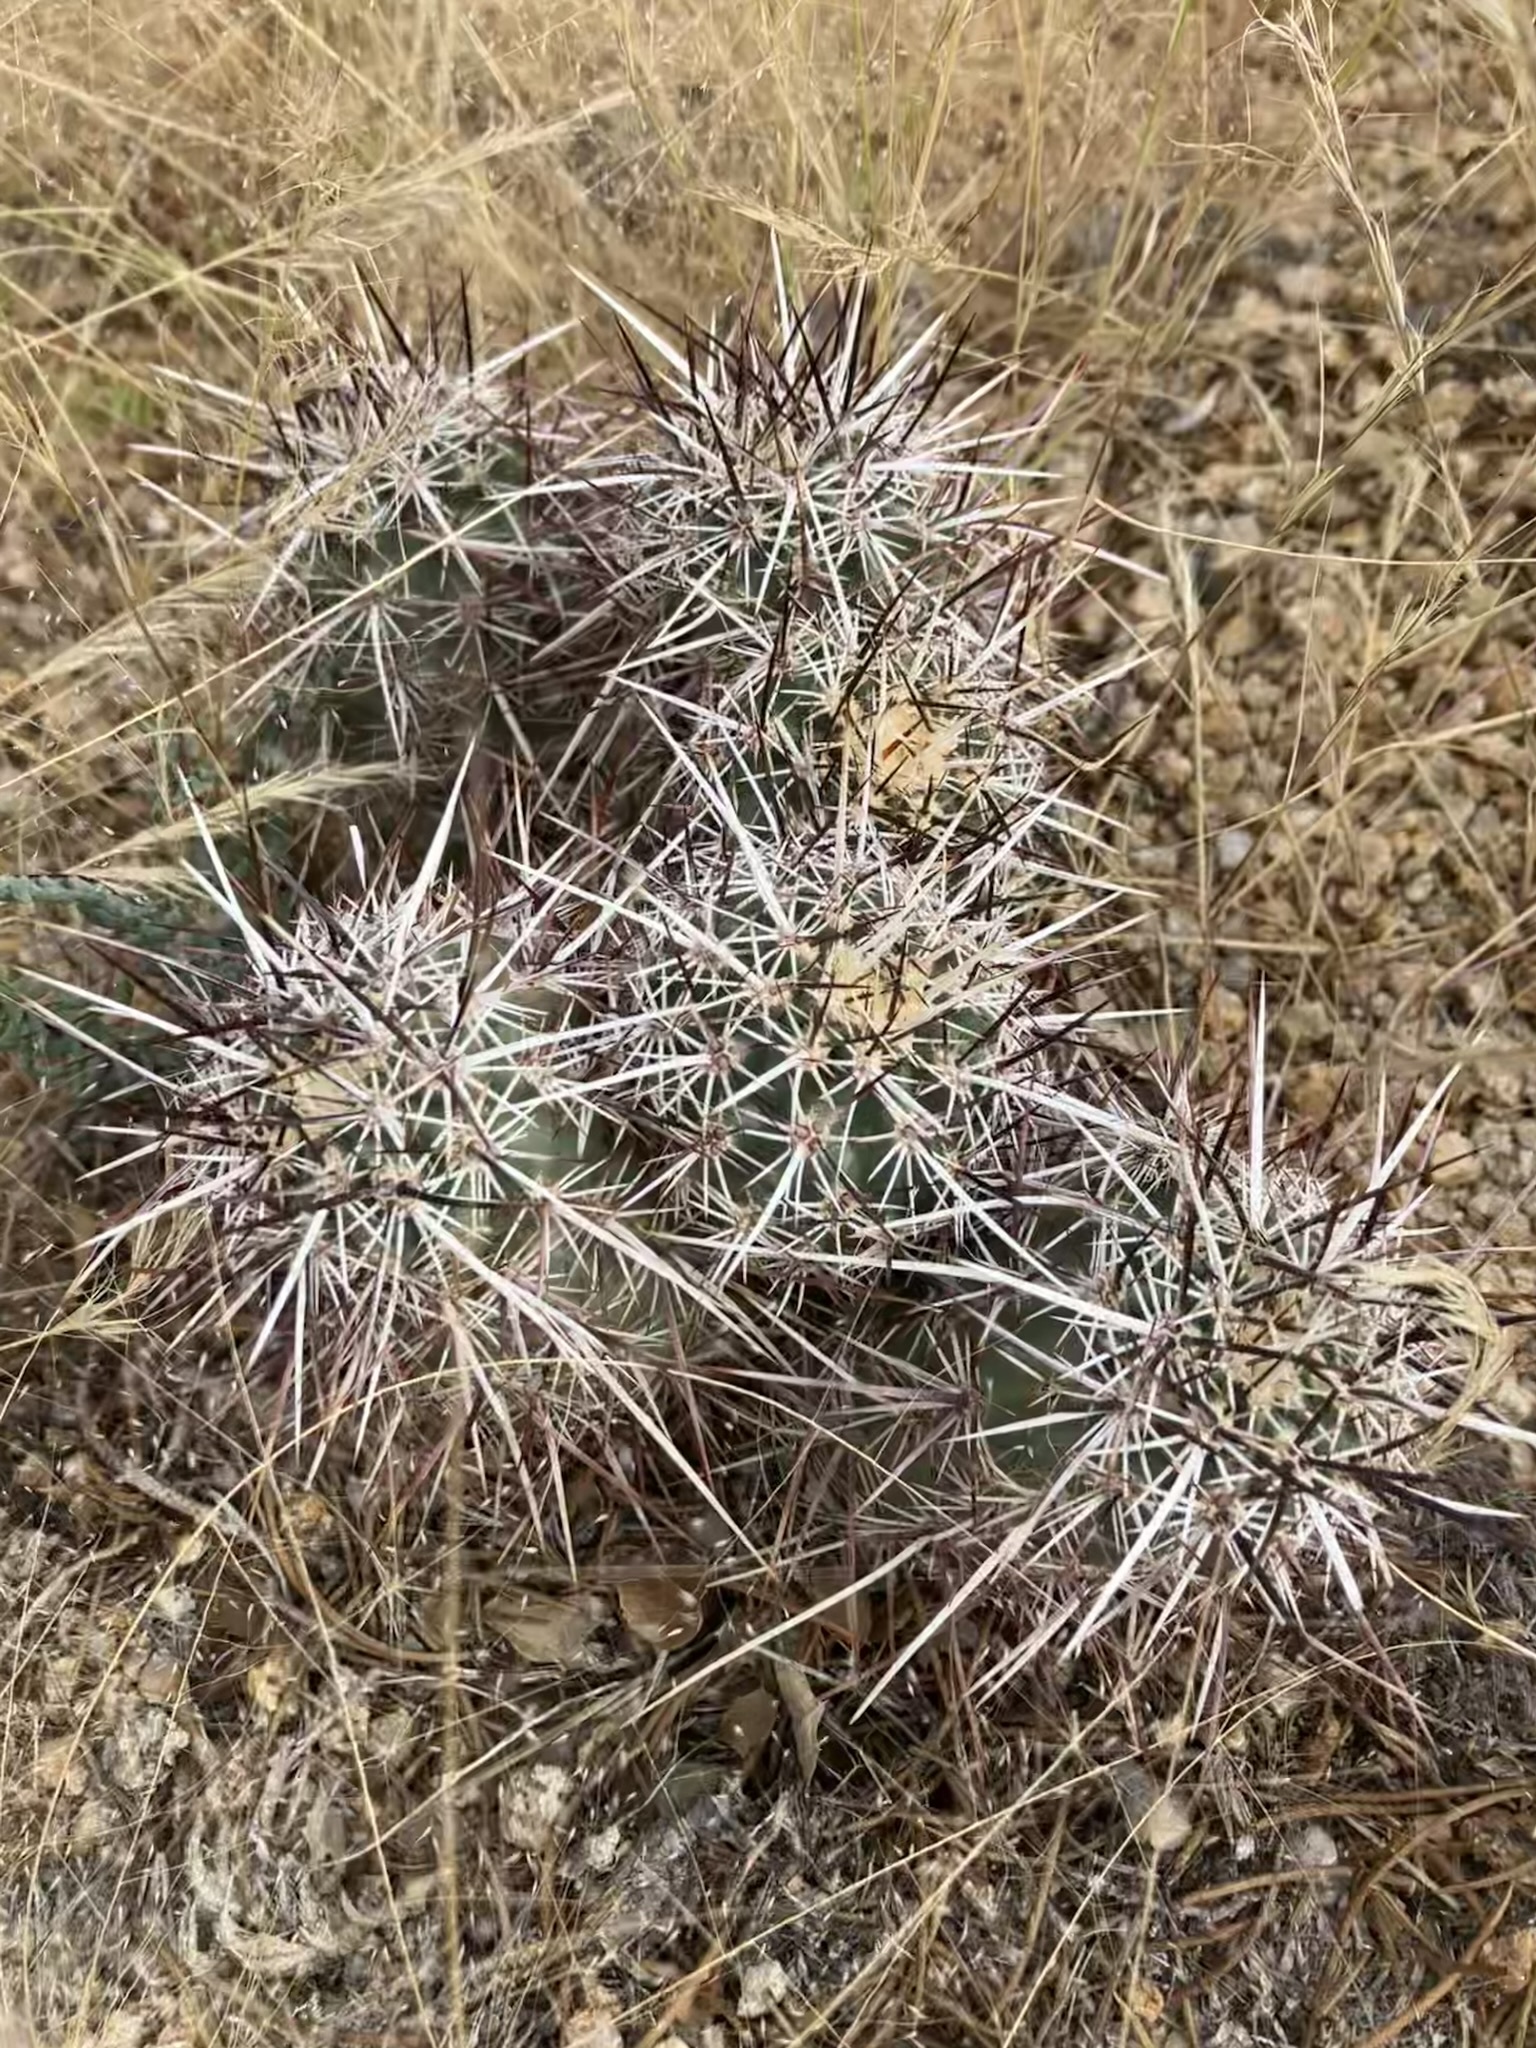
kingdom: Plantae
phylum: Tracheophyta
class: Magnoliopsida
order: Caryophyllales
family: Cactaceae
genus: Echinocereus
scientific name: Echinocereus engelmannii
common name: Engelmann's hedgehog cactus
